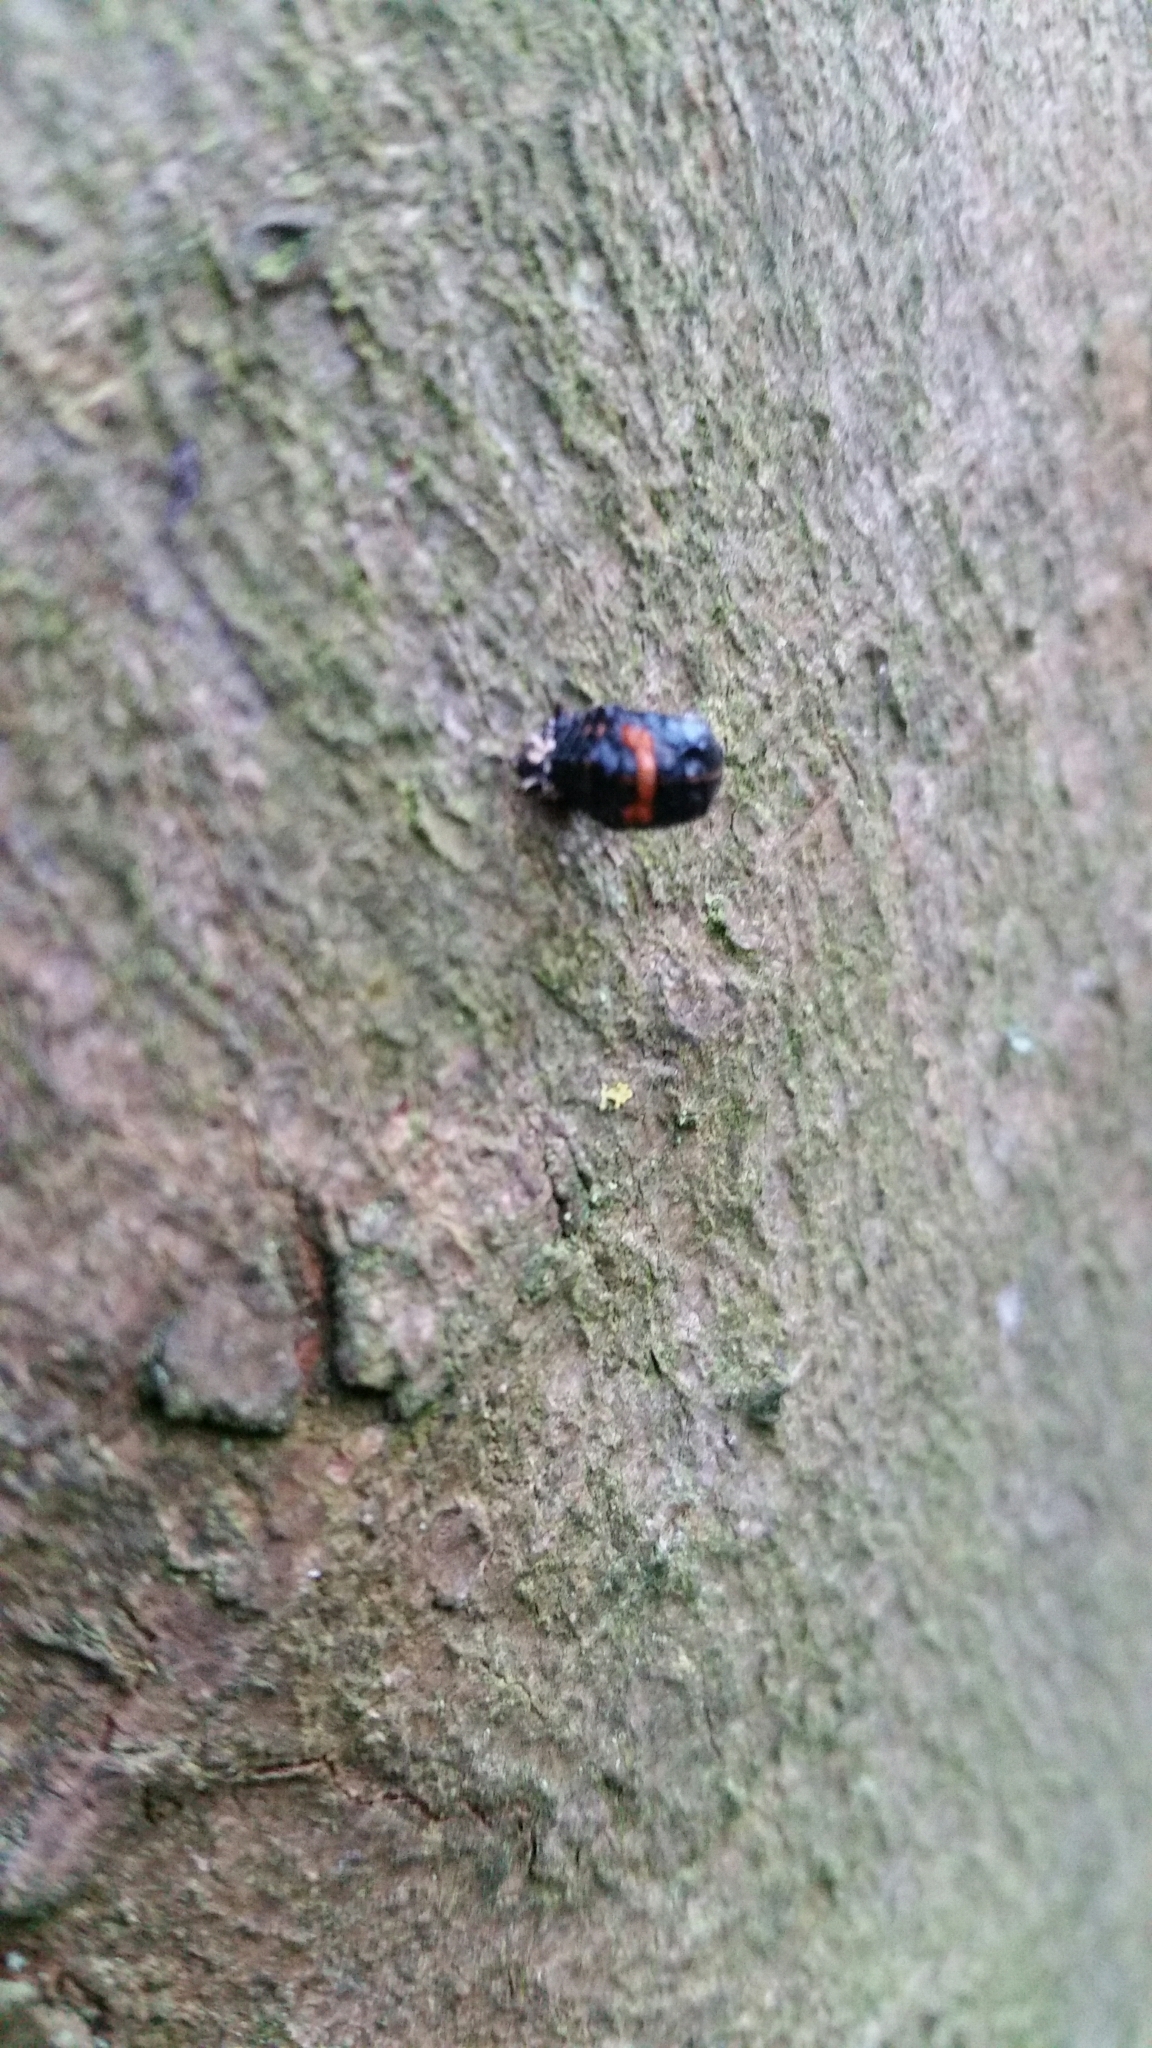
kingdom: Animalia
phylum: Arthropoda
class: Insecta
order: Coleoptera
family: Coccinellidae
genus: Harmonia
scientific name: Harmonia axyridis
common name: Harlequin ladybird
